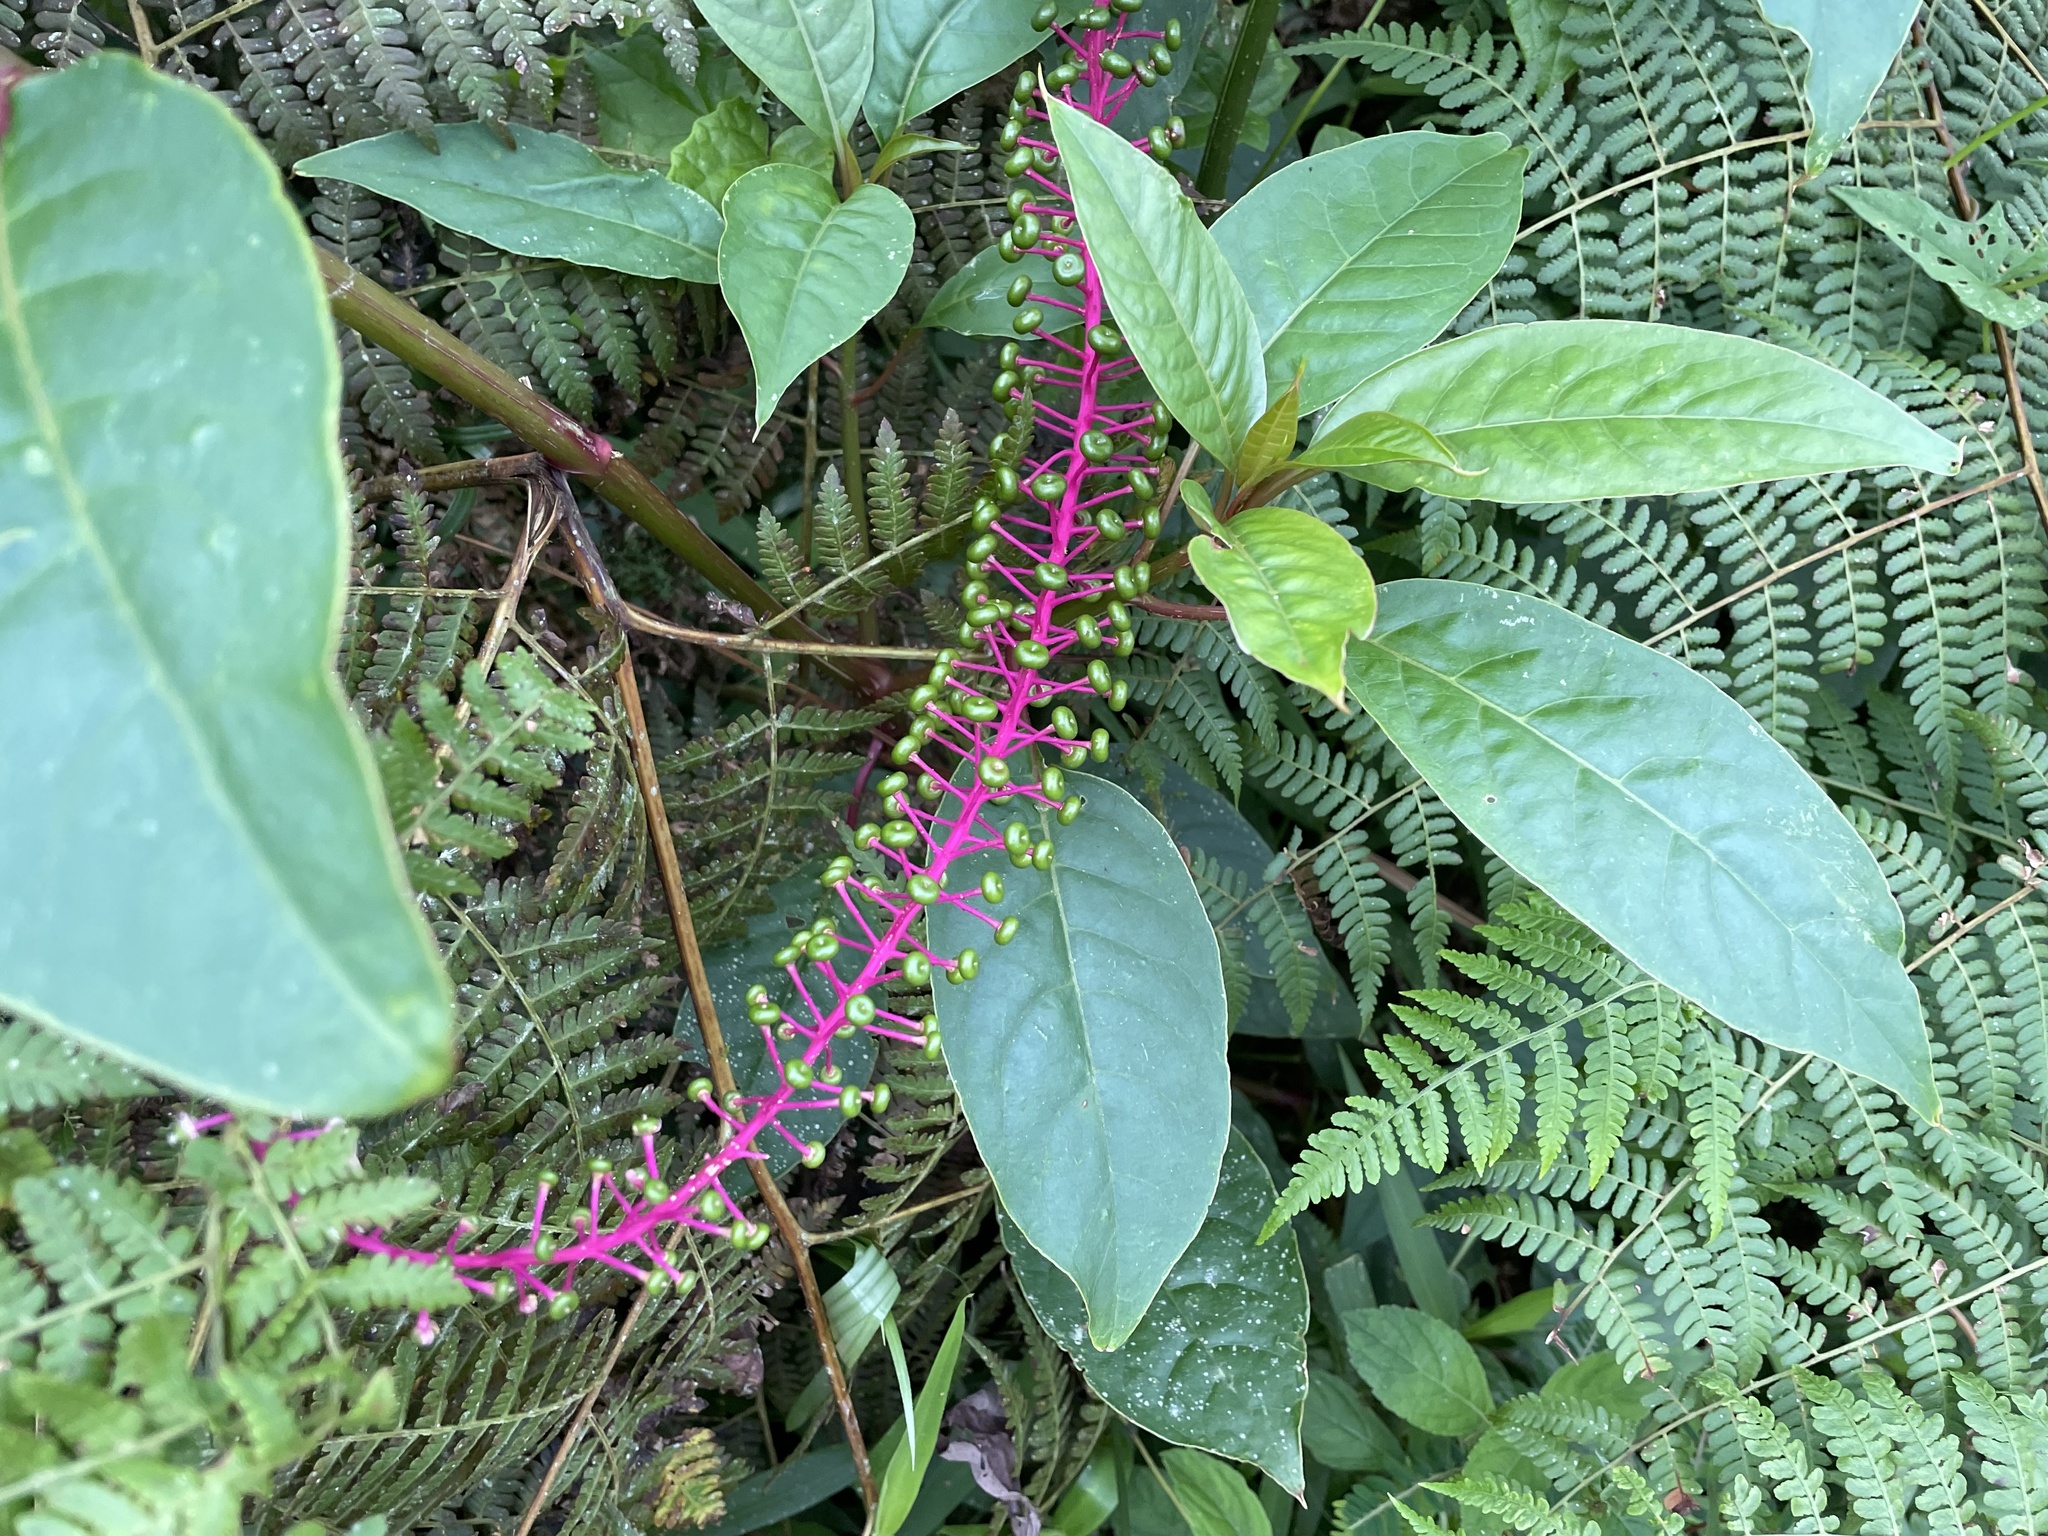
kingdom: Plantae
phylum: Tracheophyta
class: Magnoliopsida
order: Caryophyllales
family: Phytolaccaceae
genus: Phytolacca
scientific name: Phytolacca rivinoides
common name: Venezuelan pokeweed
